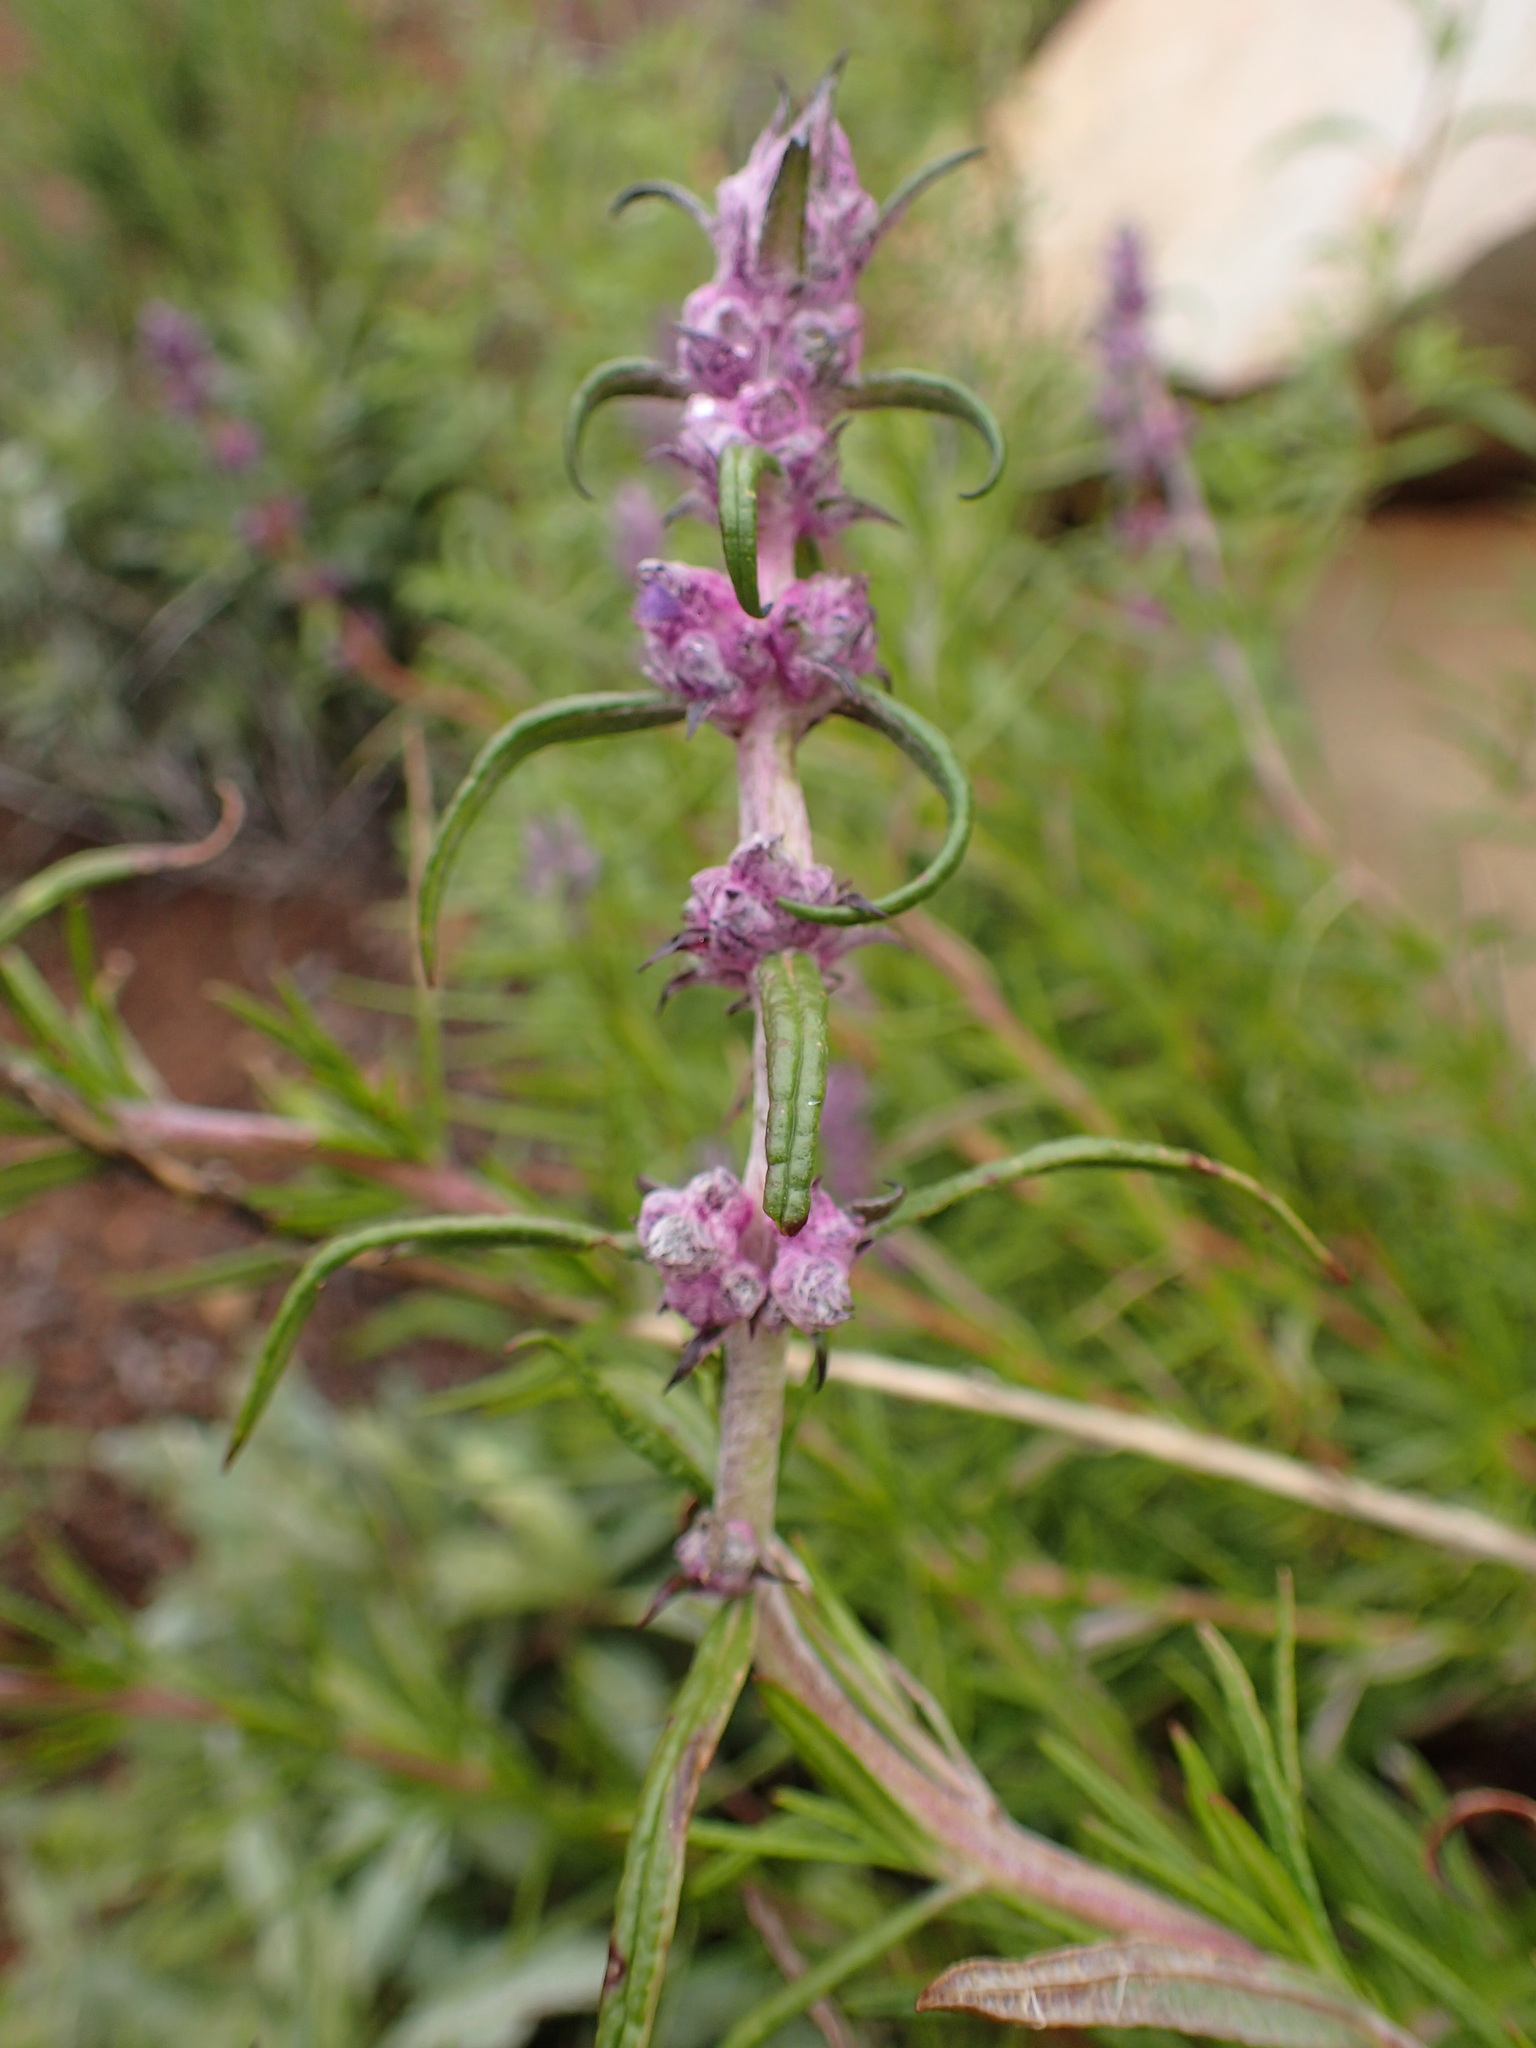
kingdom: Plantae
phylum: Tracheophyta
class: Magnoliopsida
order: Lamiales
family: Lamiaceae
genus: Trichostema
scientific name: Trichostema lanatum
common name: Woolly bluecurls
